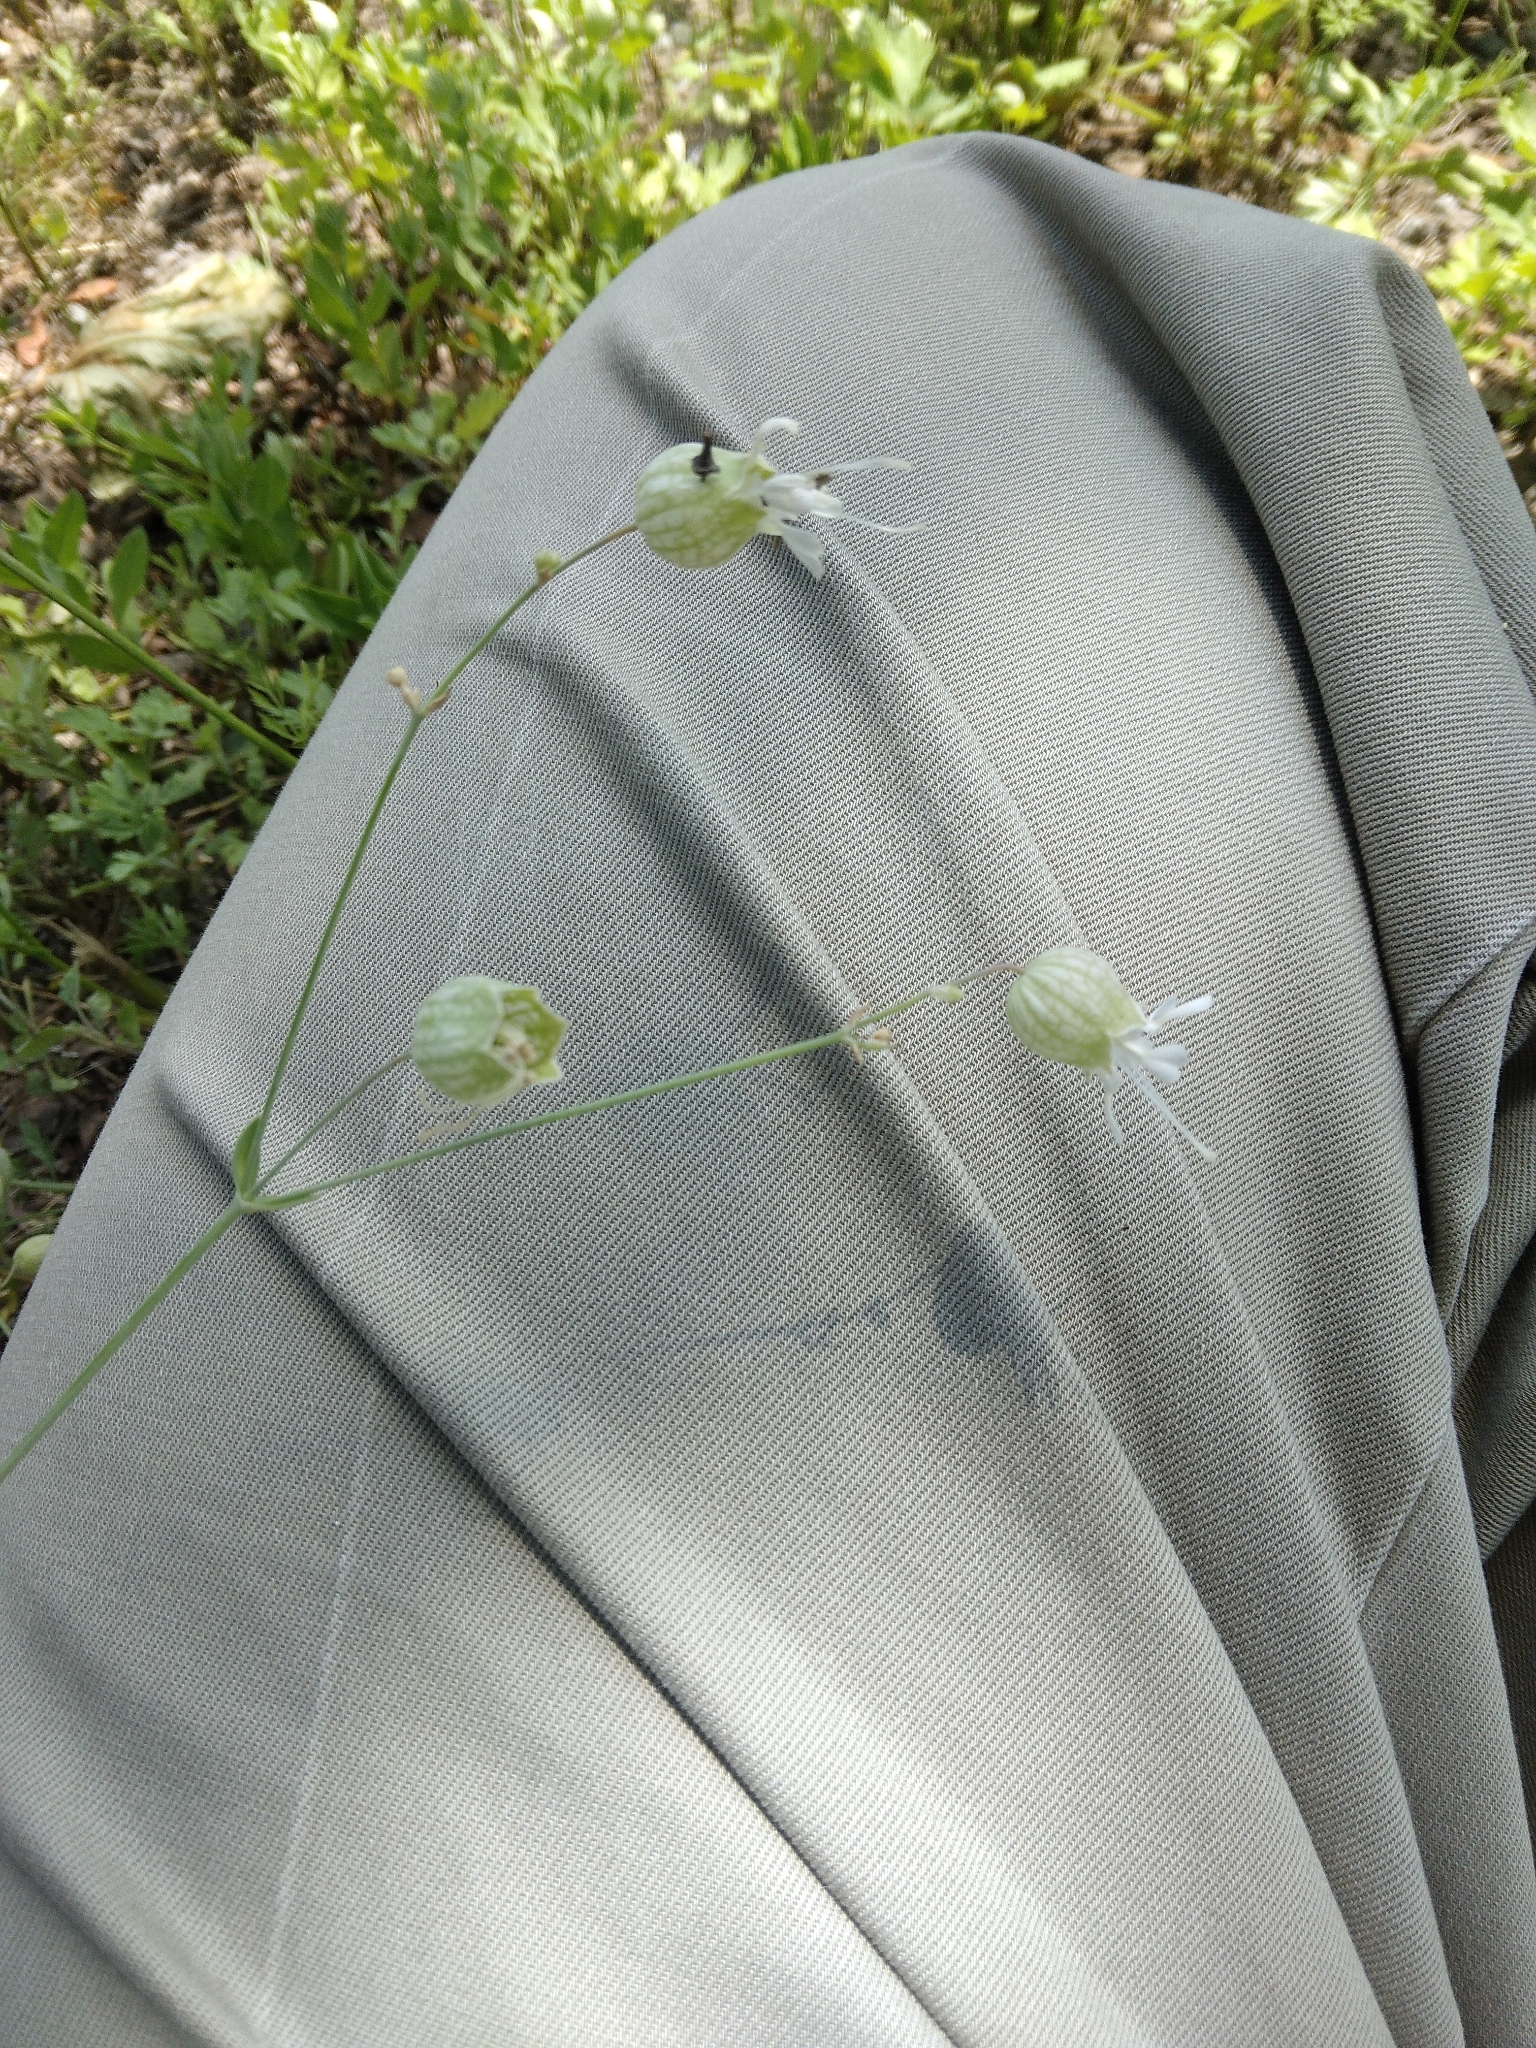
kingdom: Plantae
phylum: Tracheophyta
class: Magnoliopsida
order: Caryophyllales
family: Caryophyllaceae
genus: Silene
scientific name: Silene vulgaris
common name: Bladder campion
